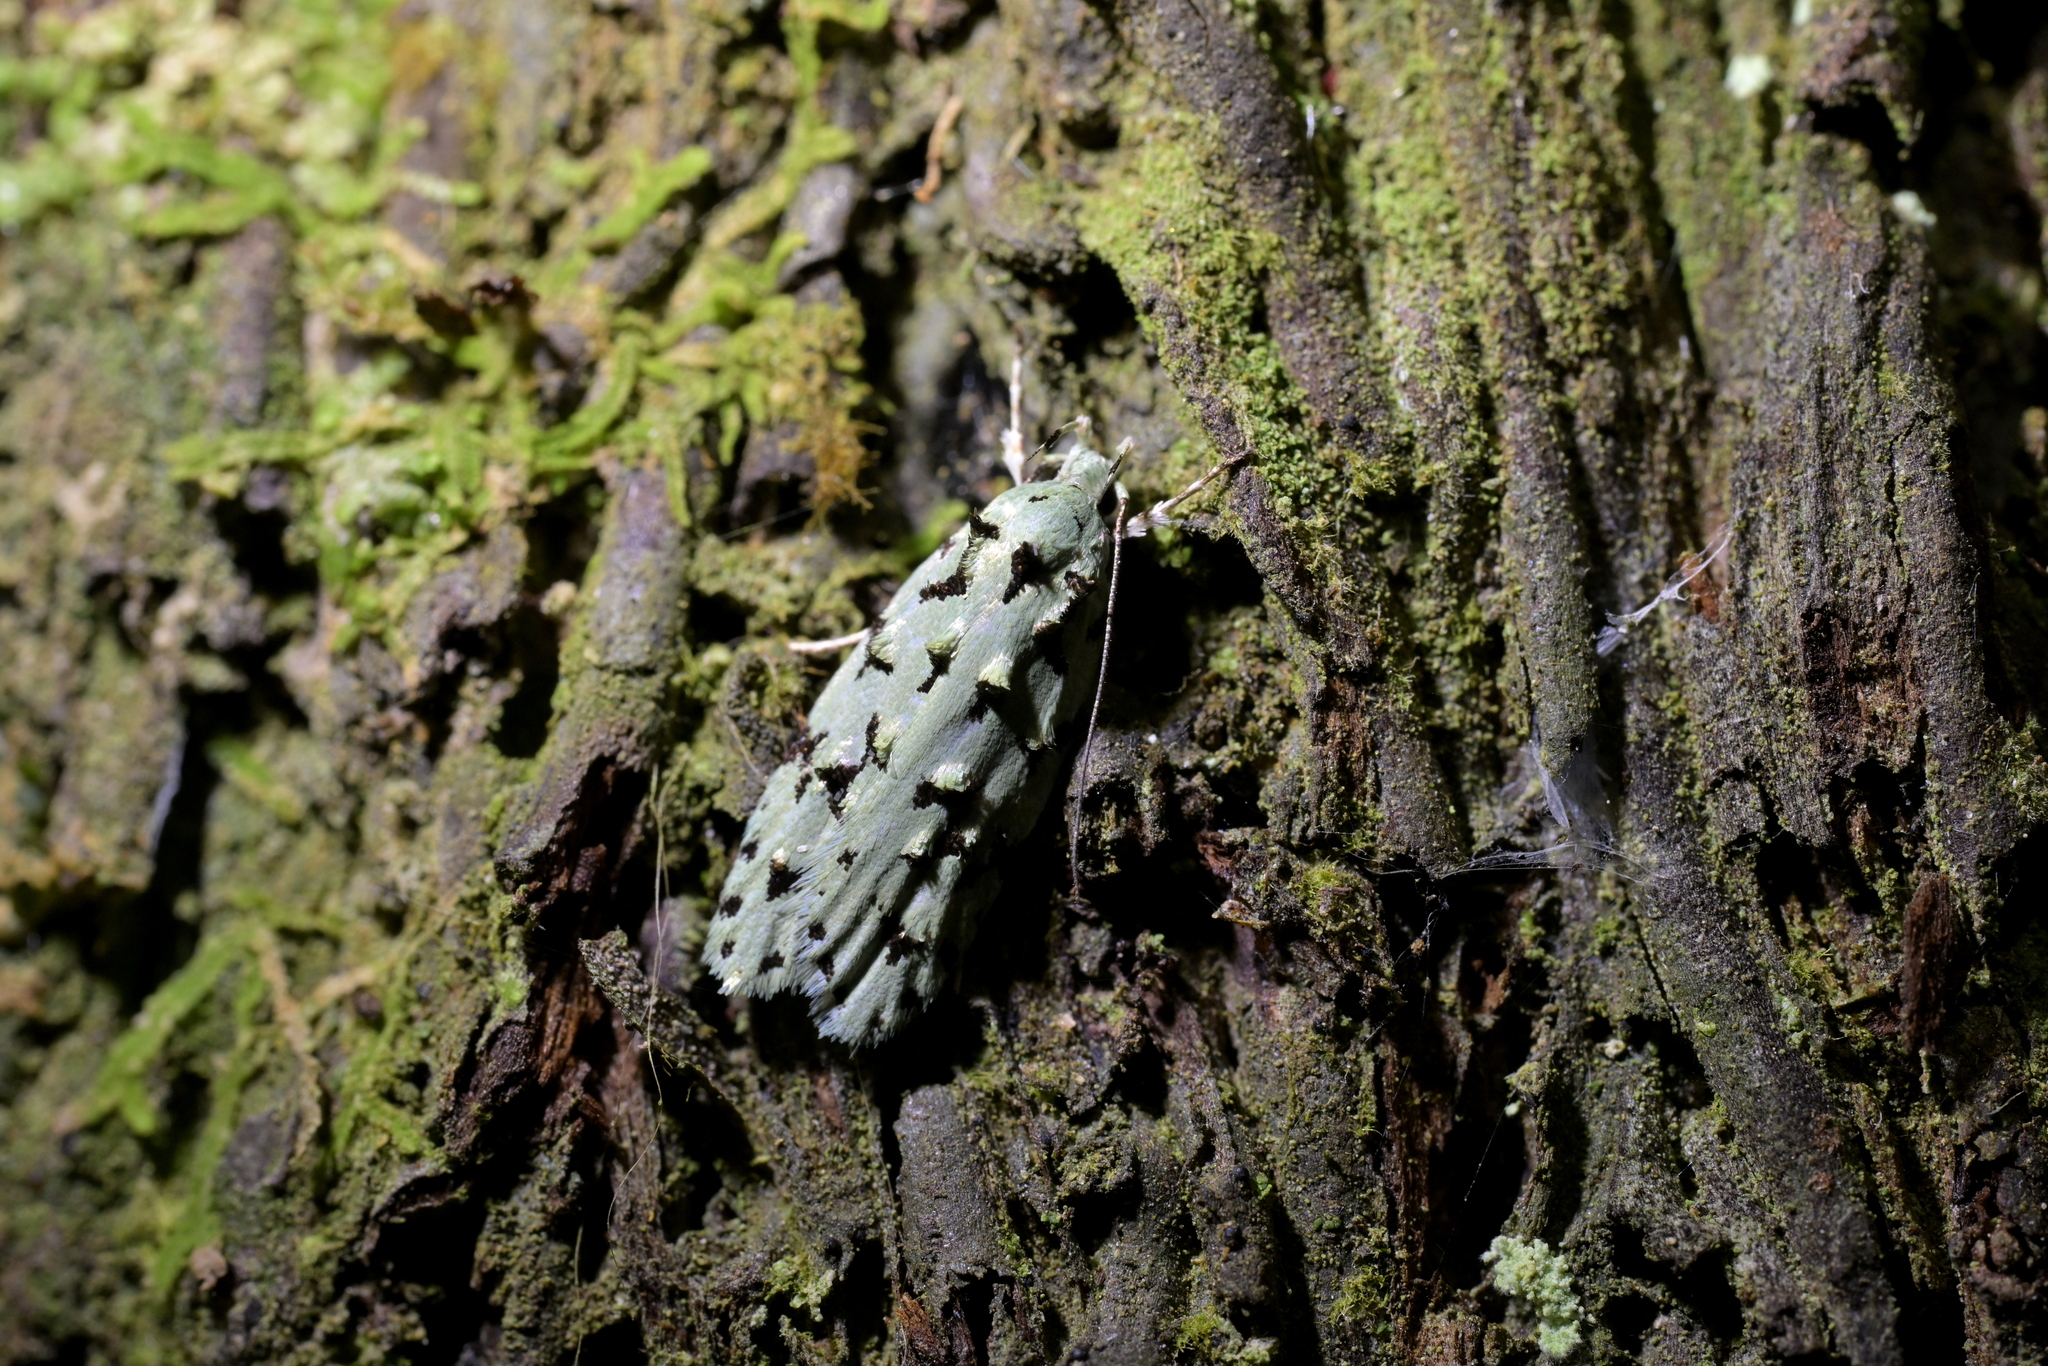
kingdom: Animalia
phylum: Arthropoda
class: Insecta
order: Lepidoptera
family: Oecophoridae
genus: Izatha
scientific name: Izatha huttoni
